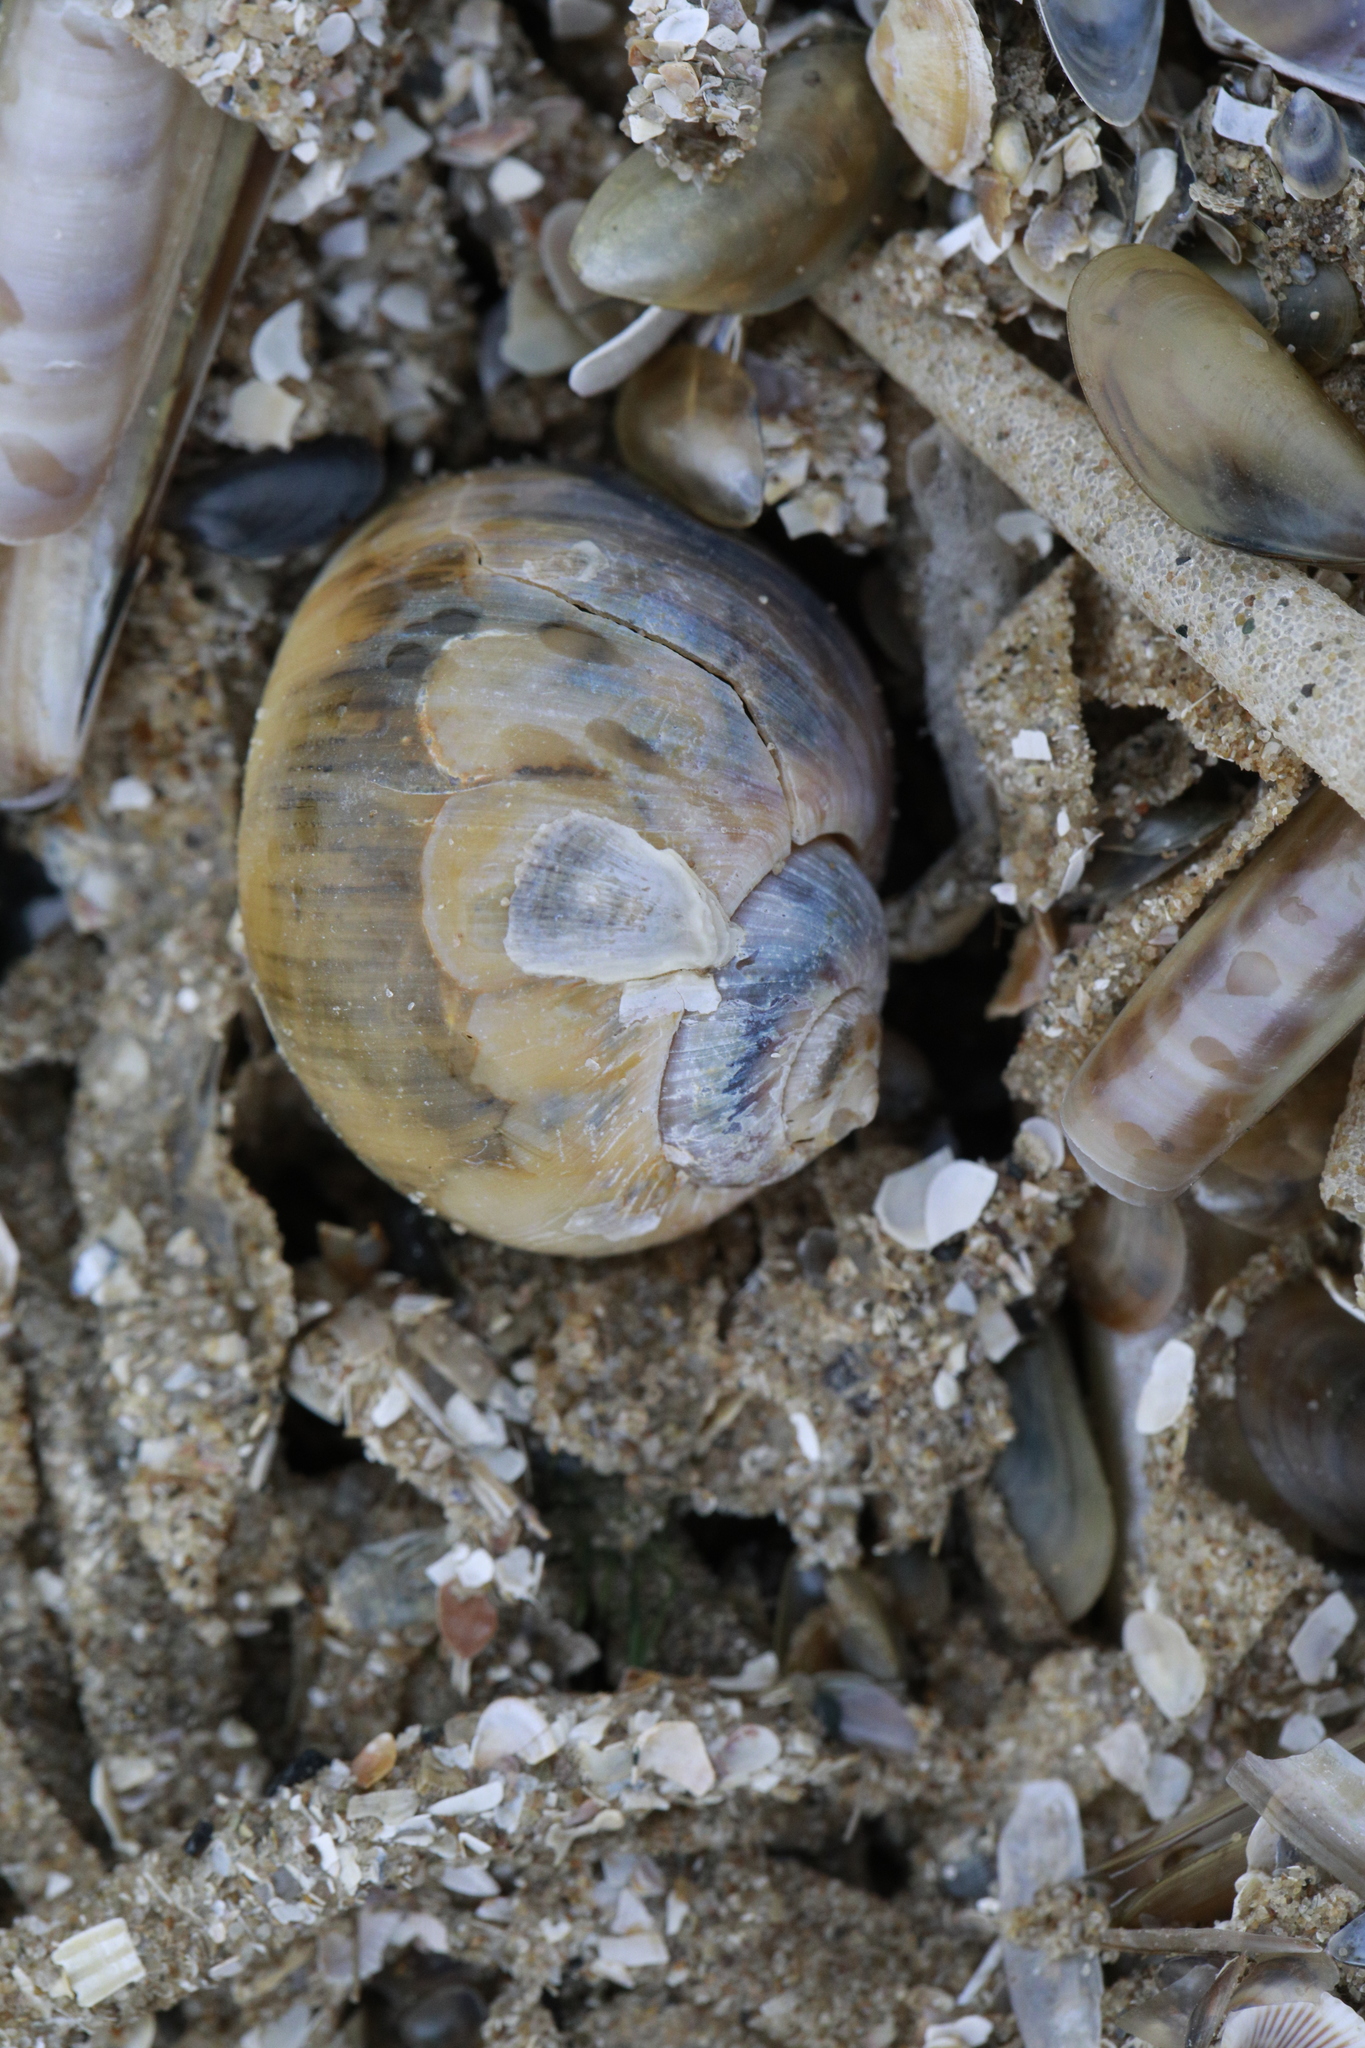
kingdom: Animalia
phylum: Mollusca
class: Gastropoda
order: Littorinimorpha
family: Naticidae
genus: Euspira
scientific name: Euspira catena
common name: Necklace shell
